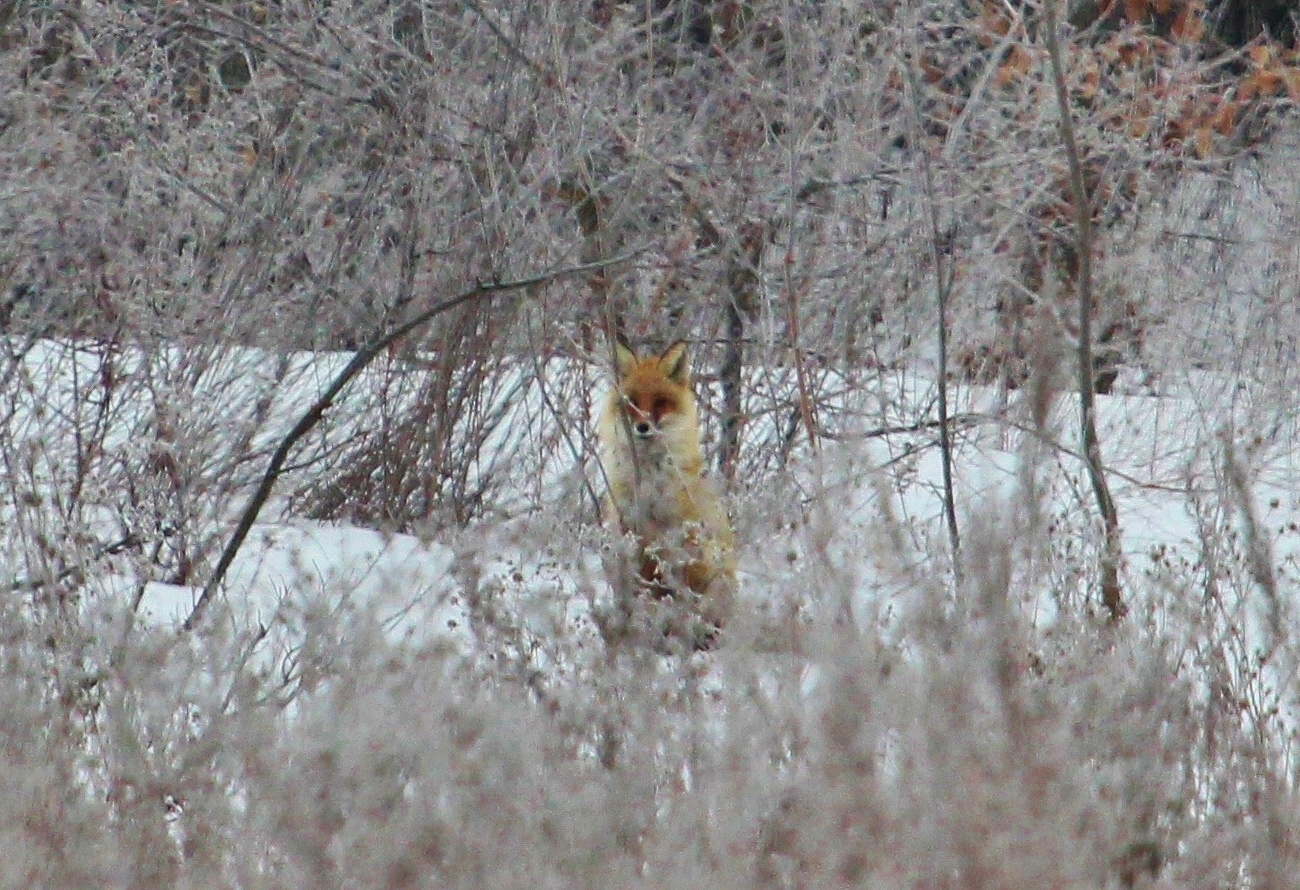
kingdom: Animalia
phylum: Chordata
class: Mammalia
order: Carnivora
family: Canidae
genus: Vulpes
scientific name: Vulpes vulpes
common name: Red fox
